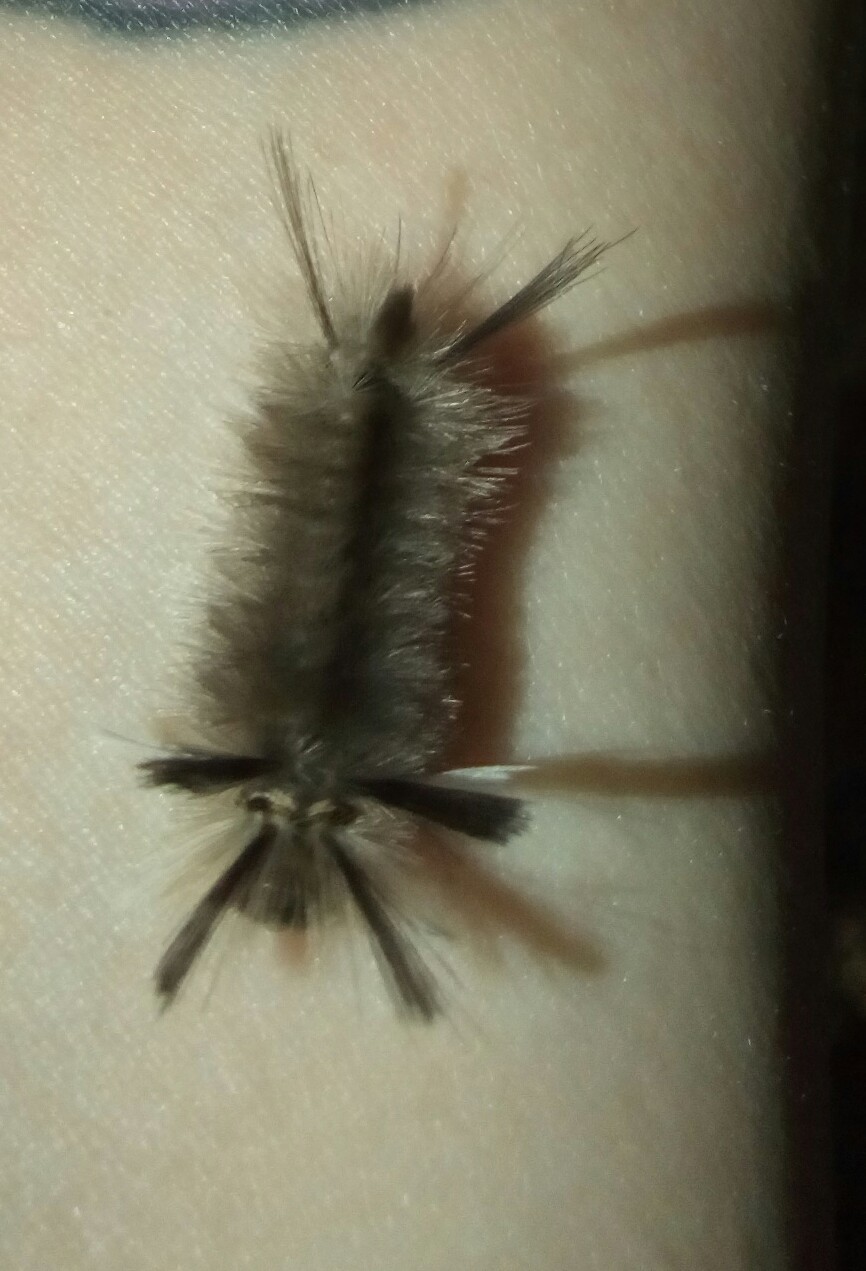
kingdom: Animalia
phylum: Arthropoda
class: Insecta
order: Lepidoptera
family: Erebidae
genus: Halysidota
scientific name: Halysidota tessellaris
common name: Banded tussock moth
